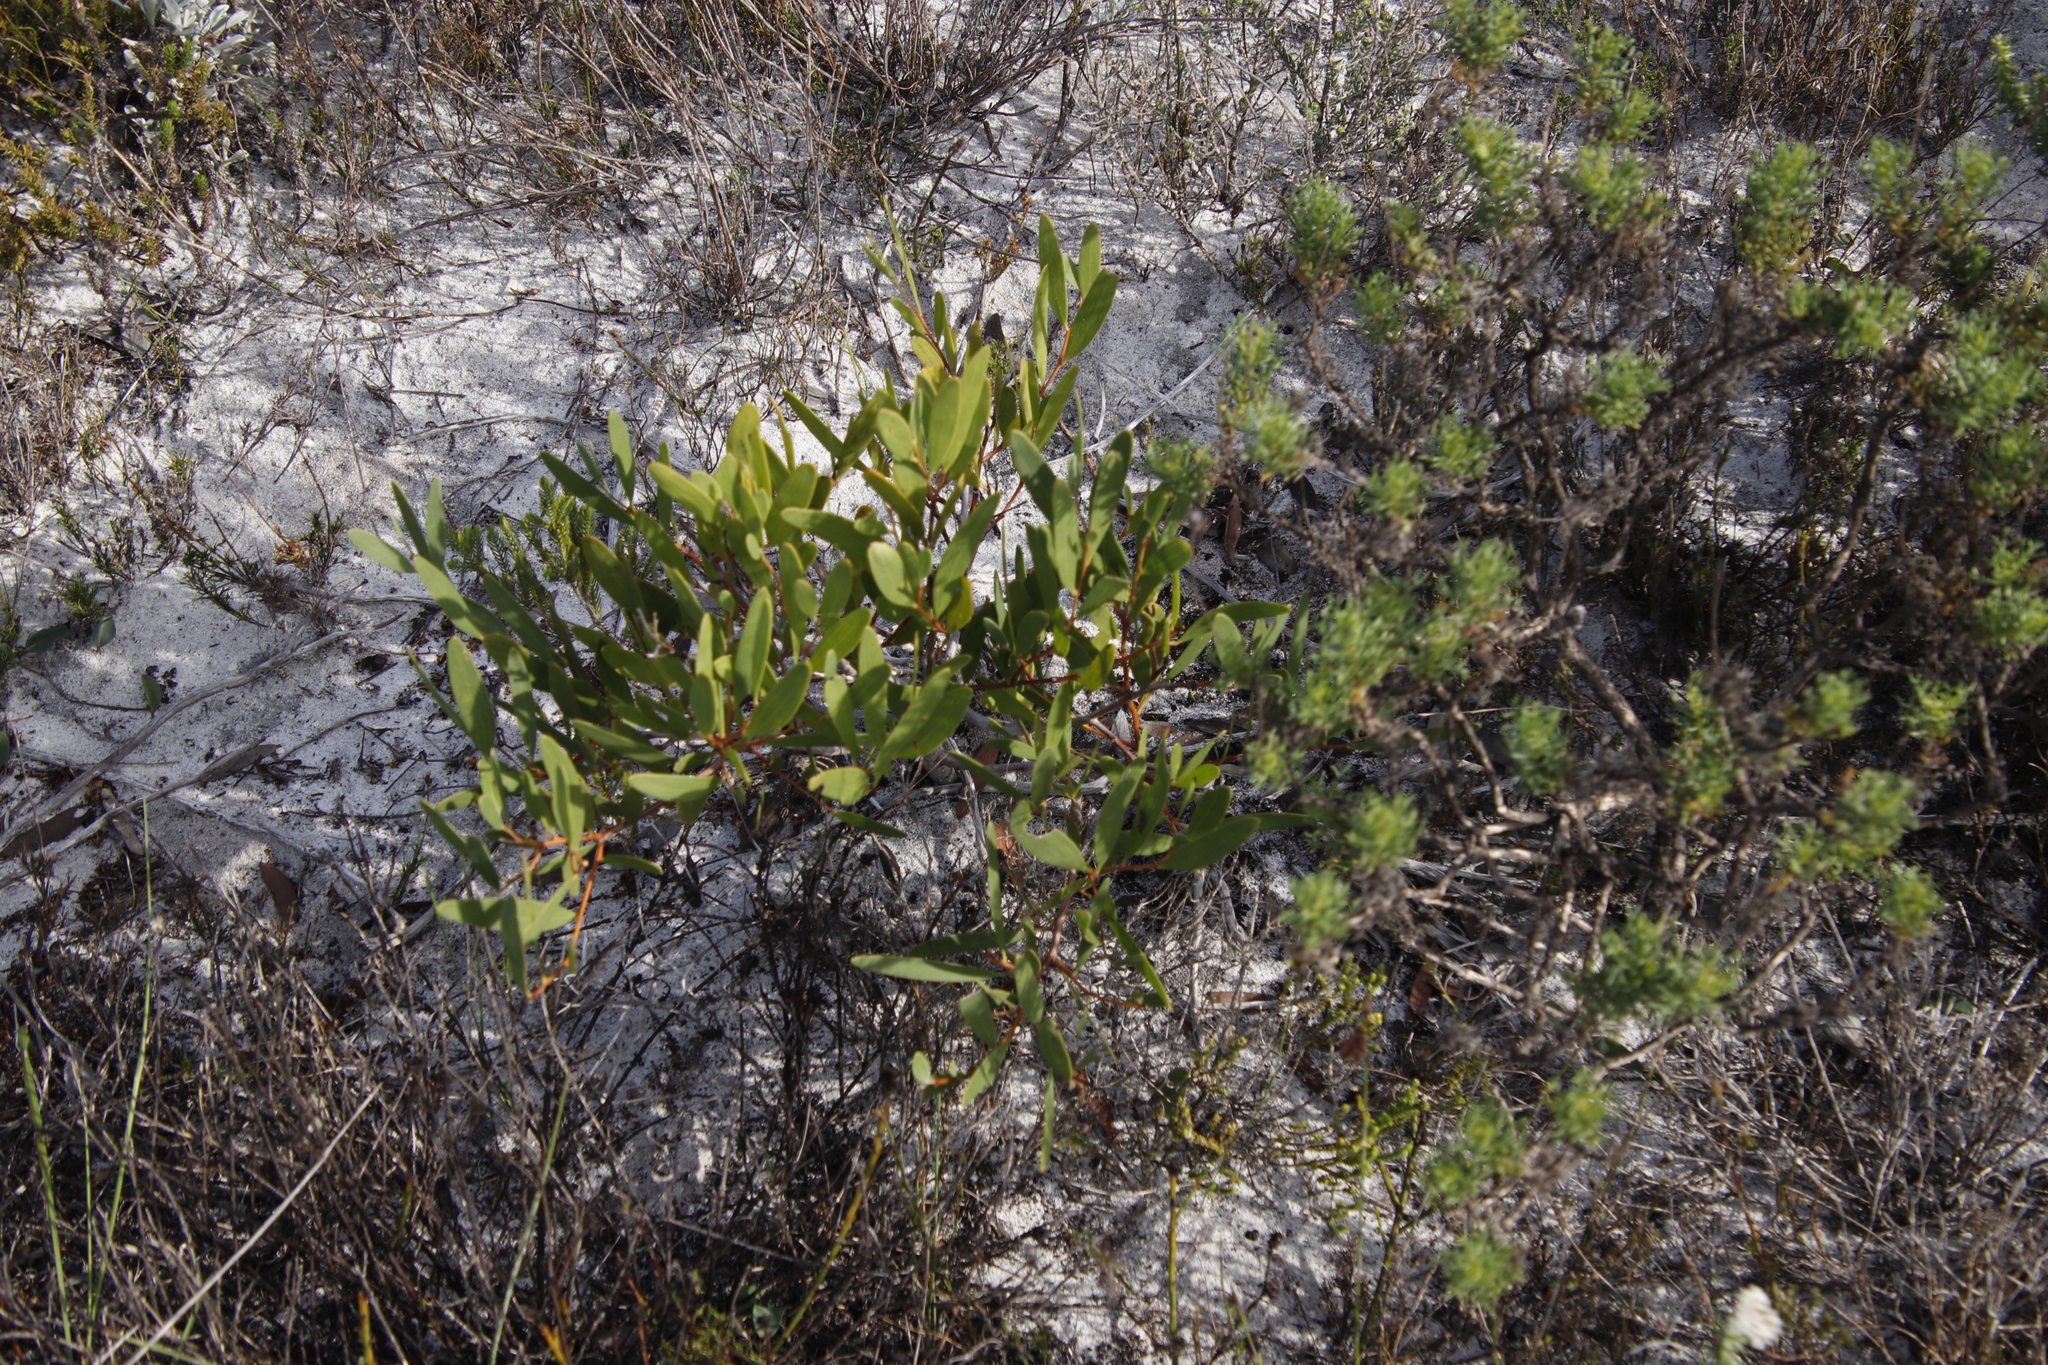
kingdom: Plantae
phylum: Tracheophyta
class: Magnoliopsida
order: Fabales
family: Fabaceae
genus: Acacia
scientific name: Acacia cyclops
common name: Coastal wattle
